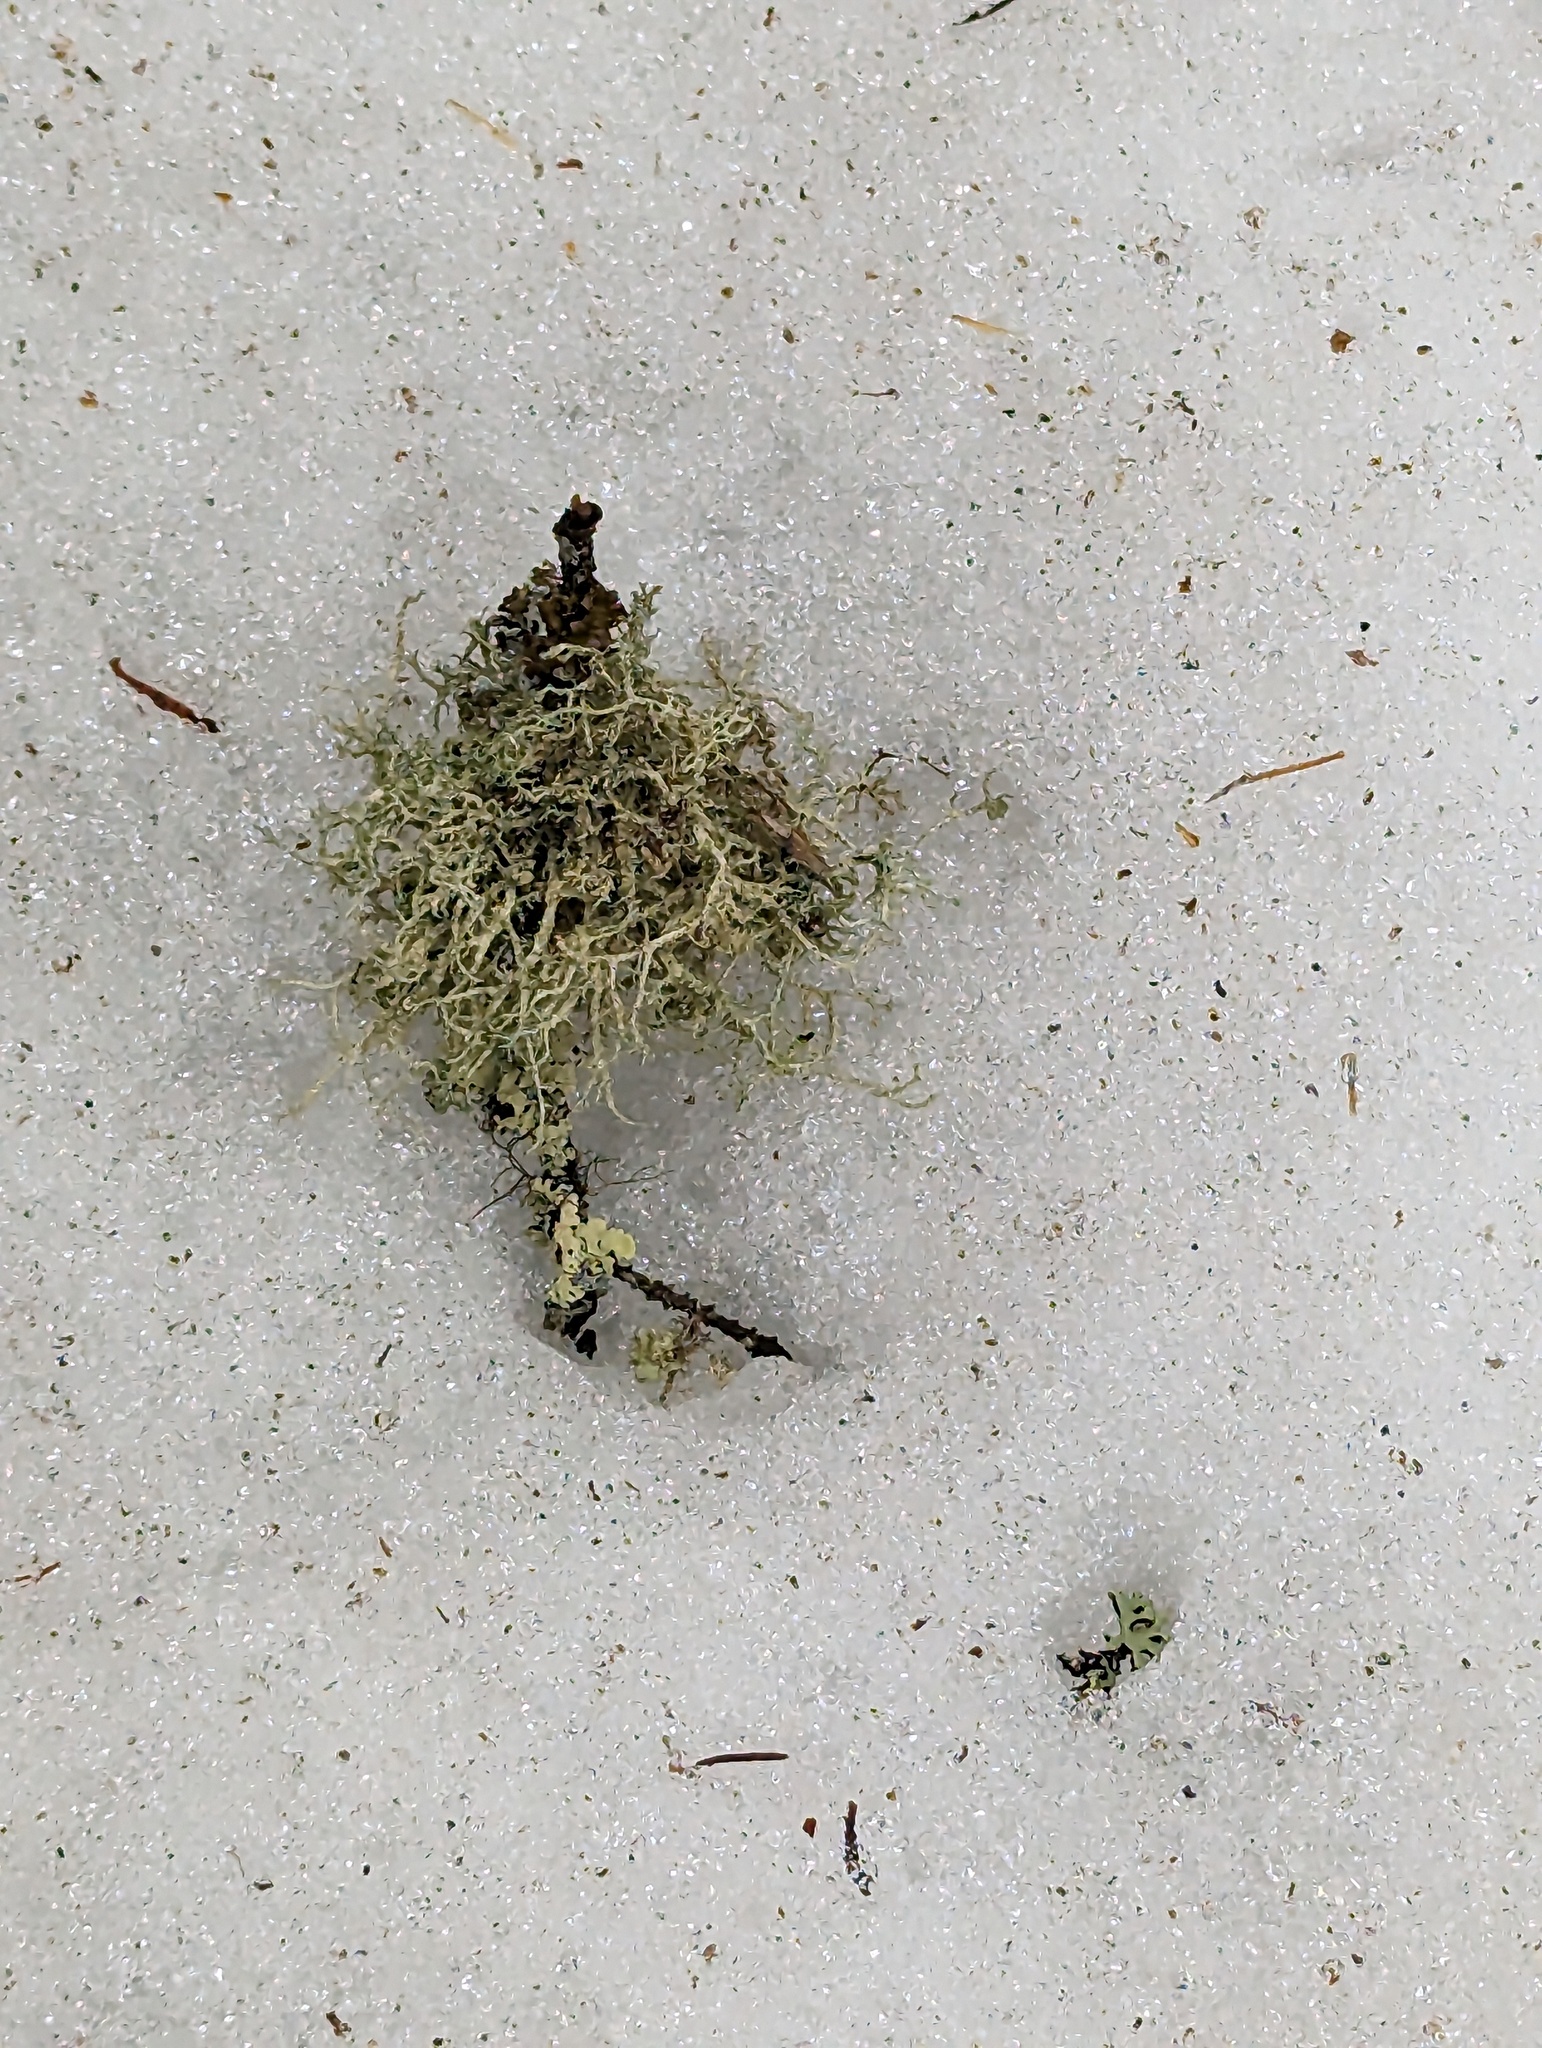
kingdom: Fungi
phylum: Ascomycota
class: Lecanoromycetes
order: Lecanorales
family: Parmeliaceae
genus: Evernia
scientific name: Evernia mesomorpha
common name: Boreal oak moss lichen
